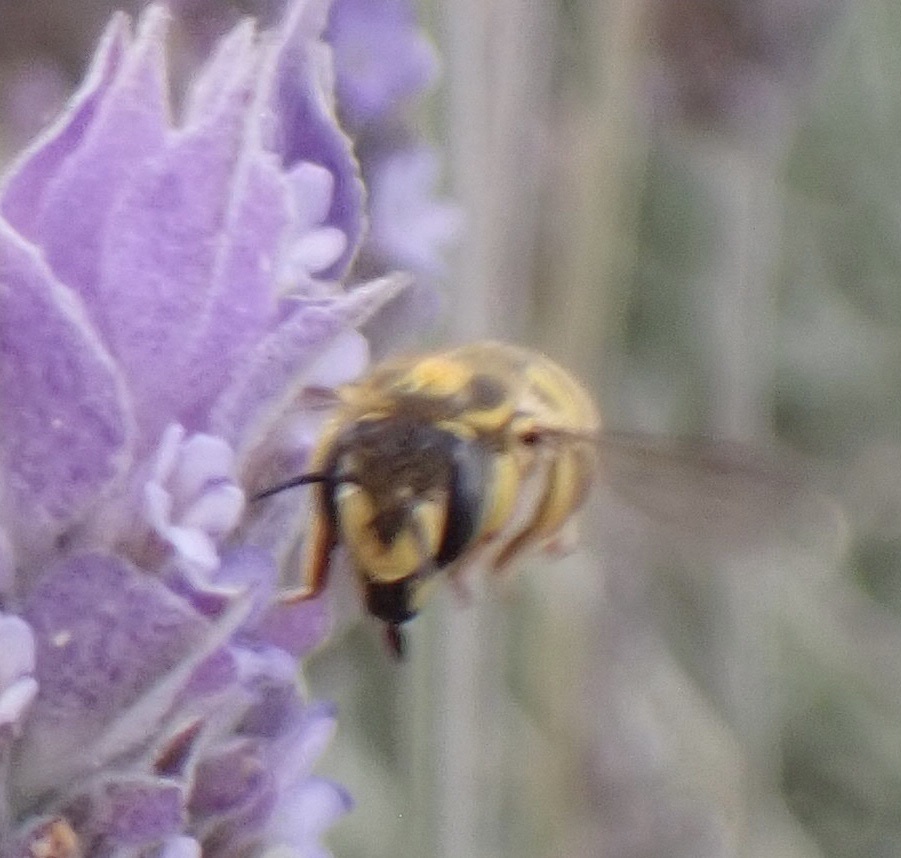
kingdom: Animalia
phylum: Arthropoda
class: Insecta
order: Hymenoptera
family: Megachilidae
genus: Anthidium
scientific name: Anthidium manicatum
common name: Wool carder bee
